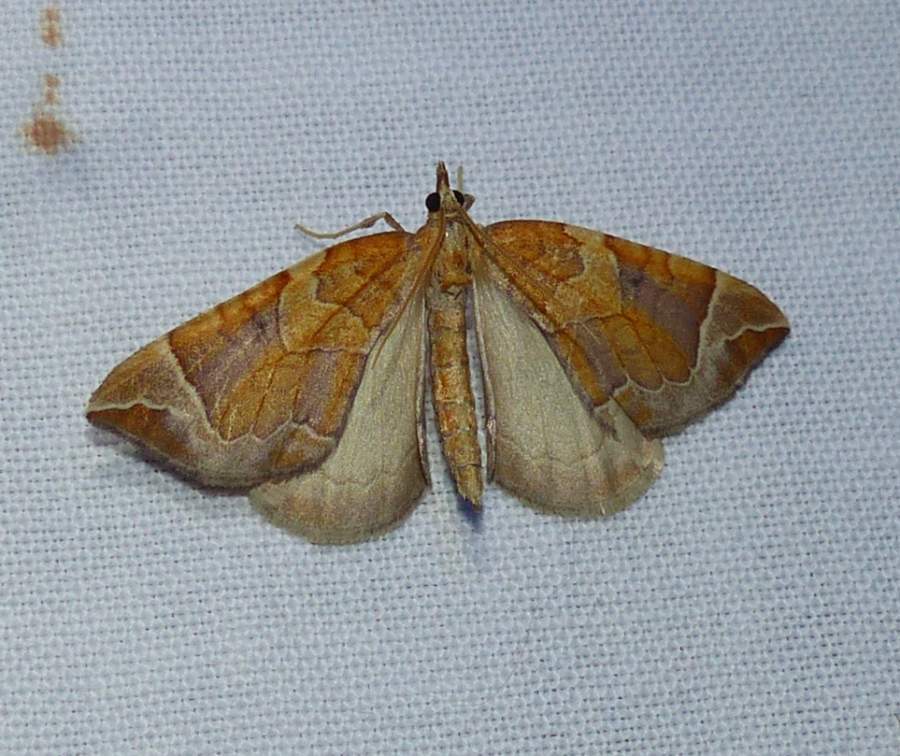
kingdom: Animalia
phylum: Arthropoda
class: Insecta
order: Lepidoptera
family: Geometridae
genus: Eulithis
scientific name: Eulithis testata
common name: Chevron
